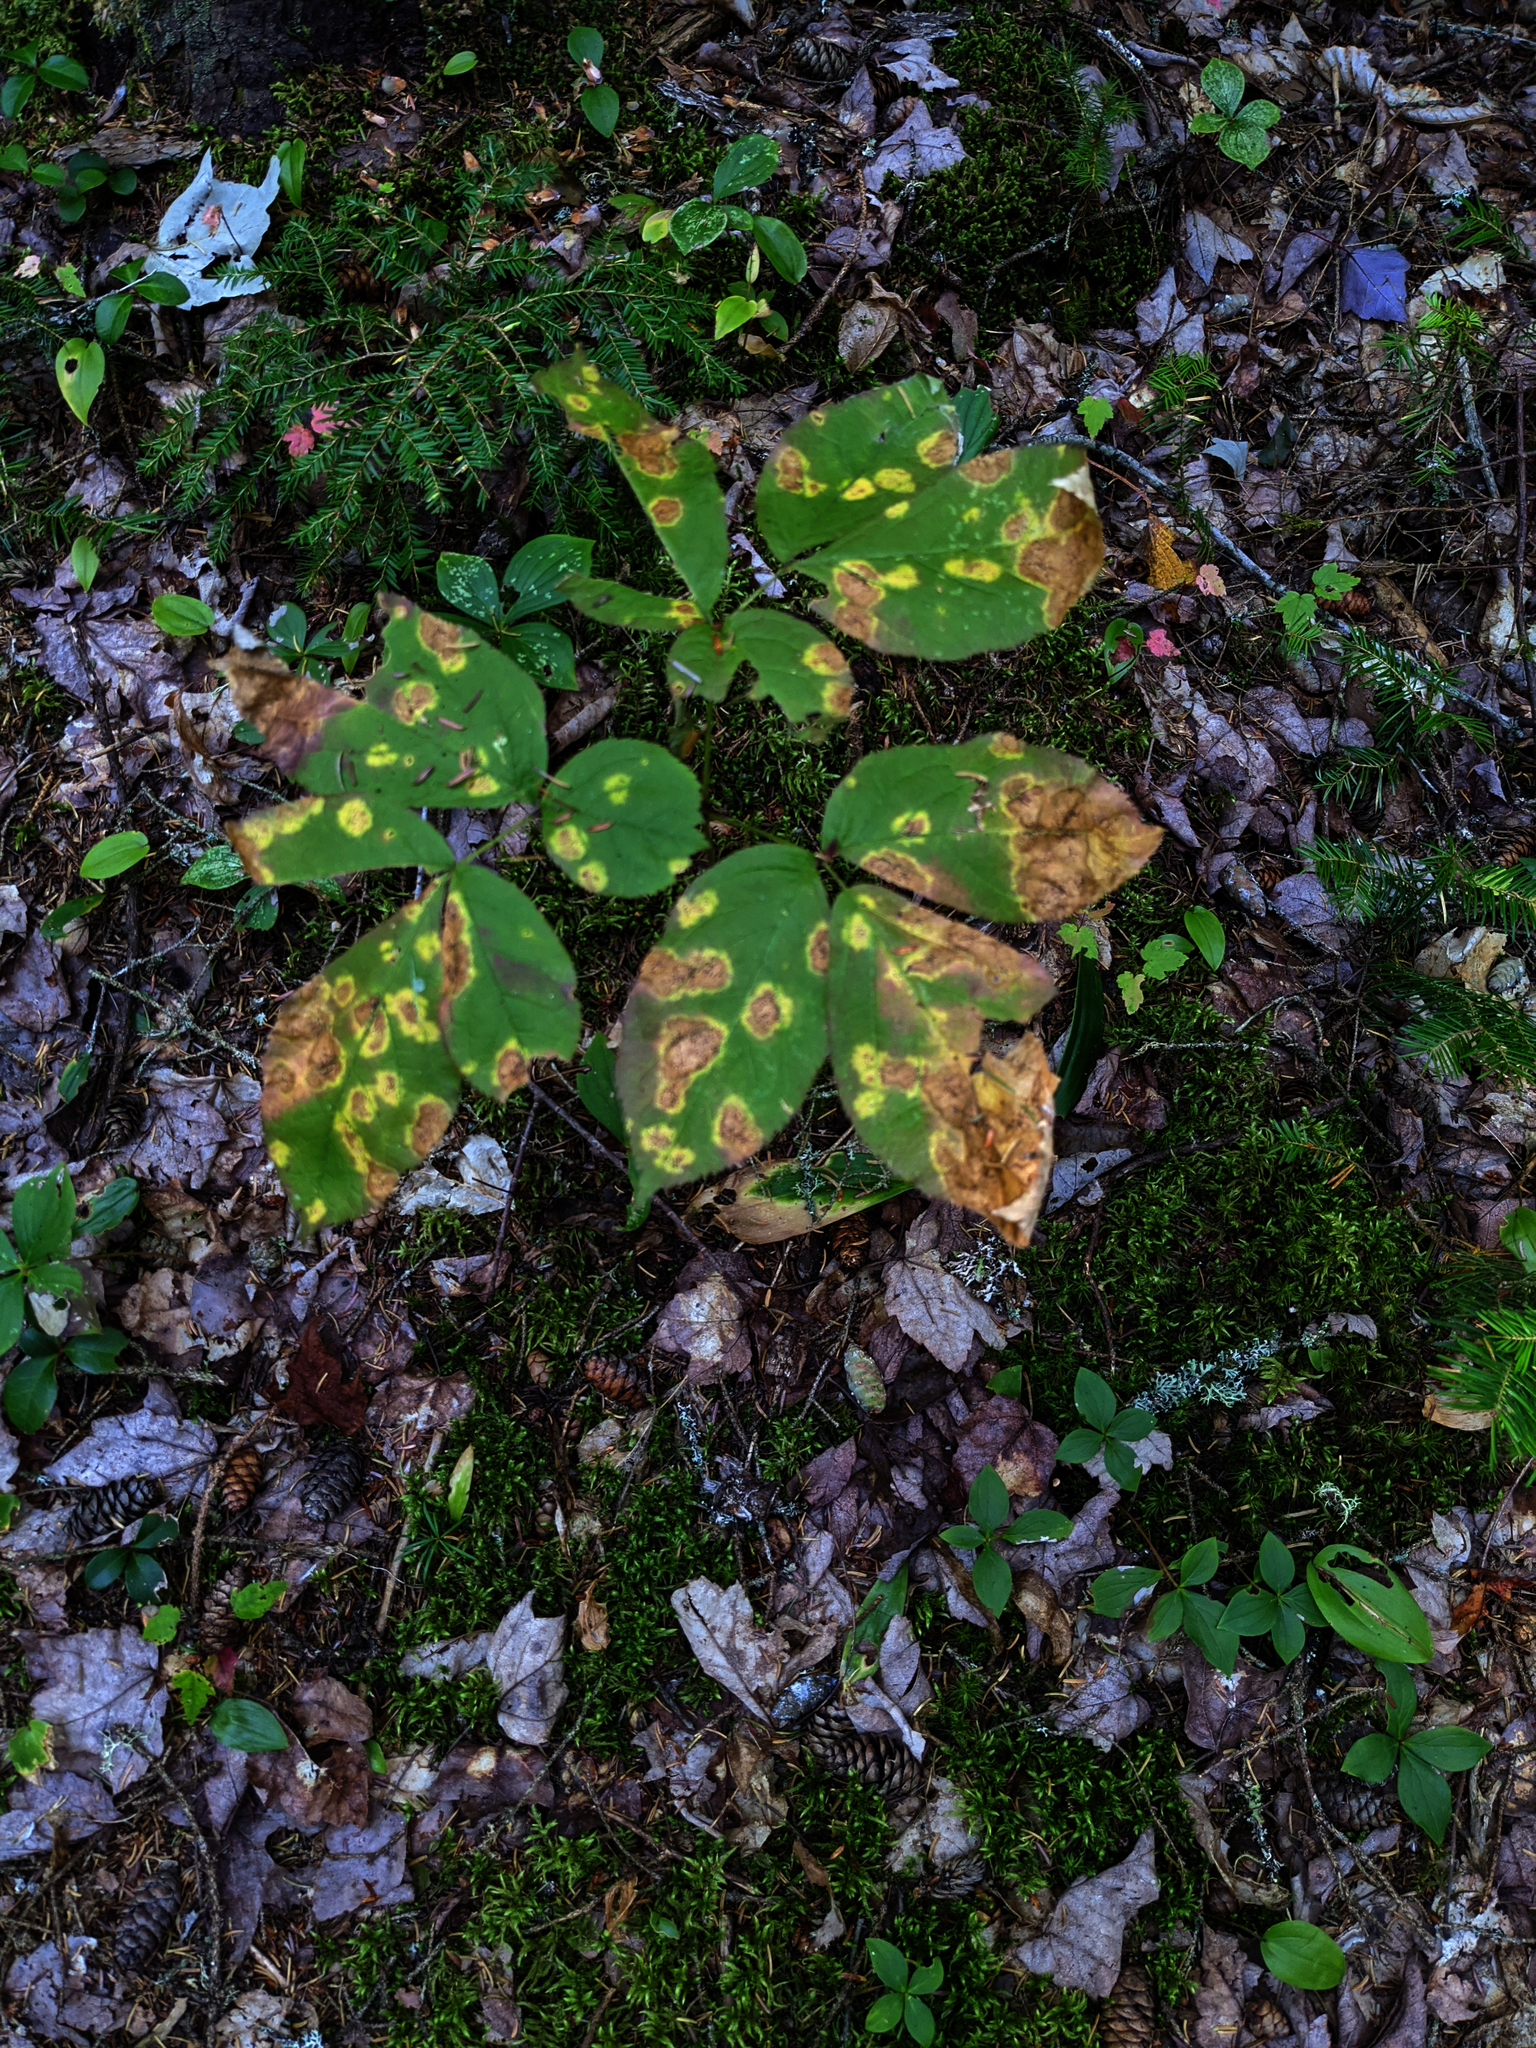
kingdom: Plantae
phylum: Tracheophyta
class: Magnoliopsida
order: Apiales
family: Araliaceae
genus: Aralia
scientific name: Aralia nudicaulis
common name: Wild sarsaparilla
